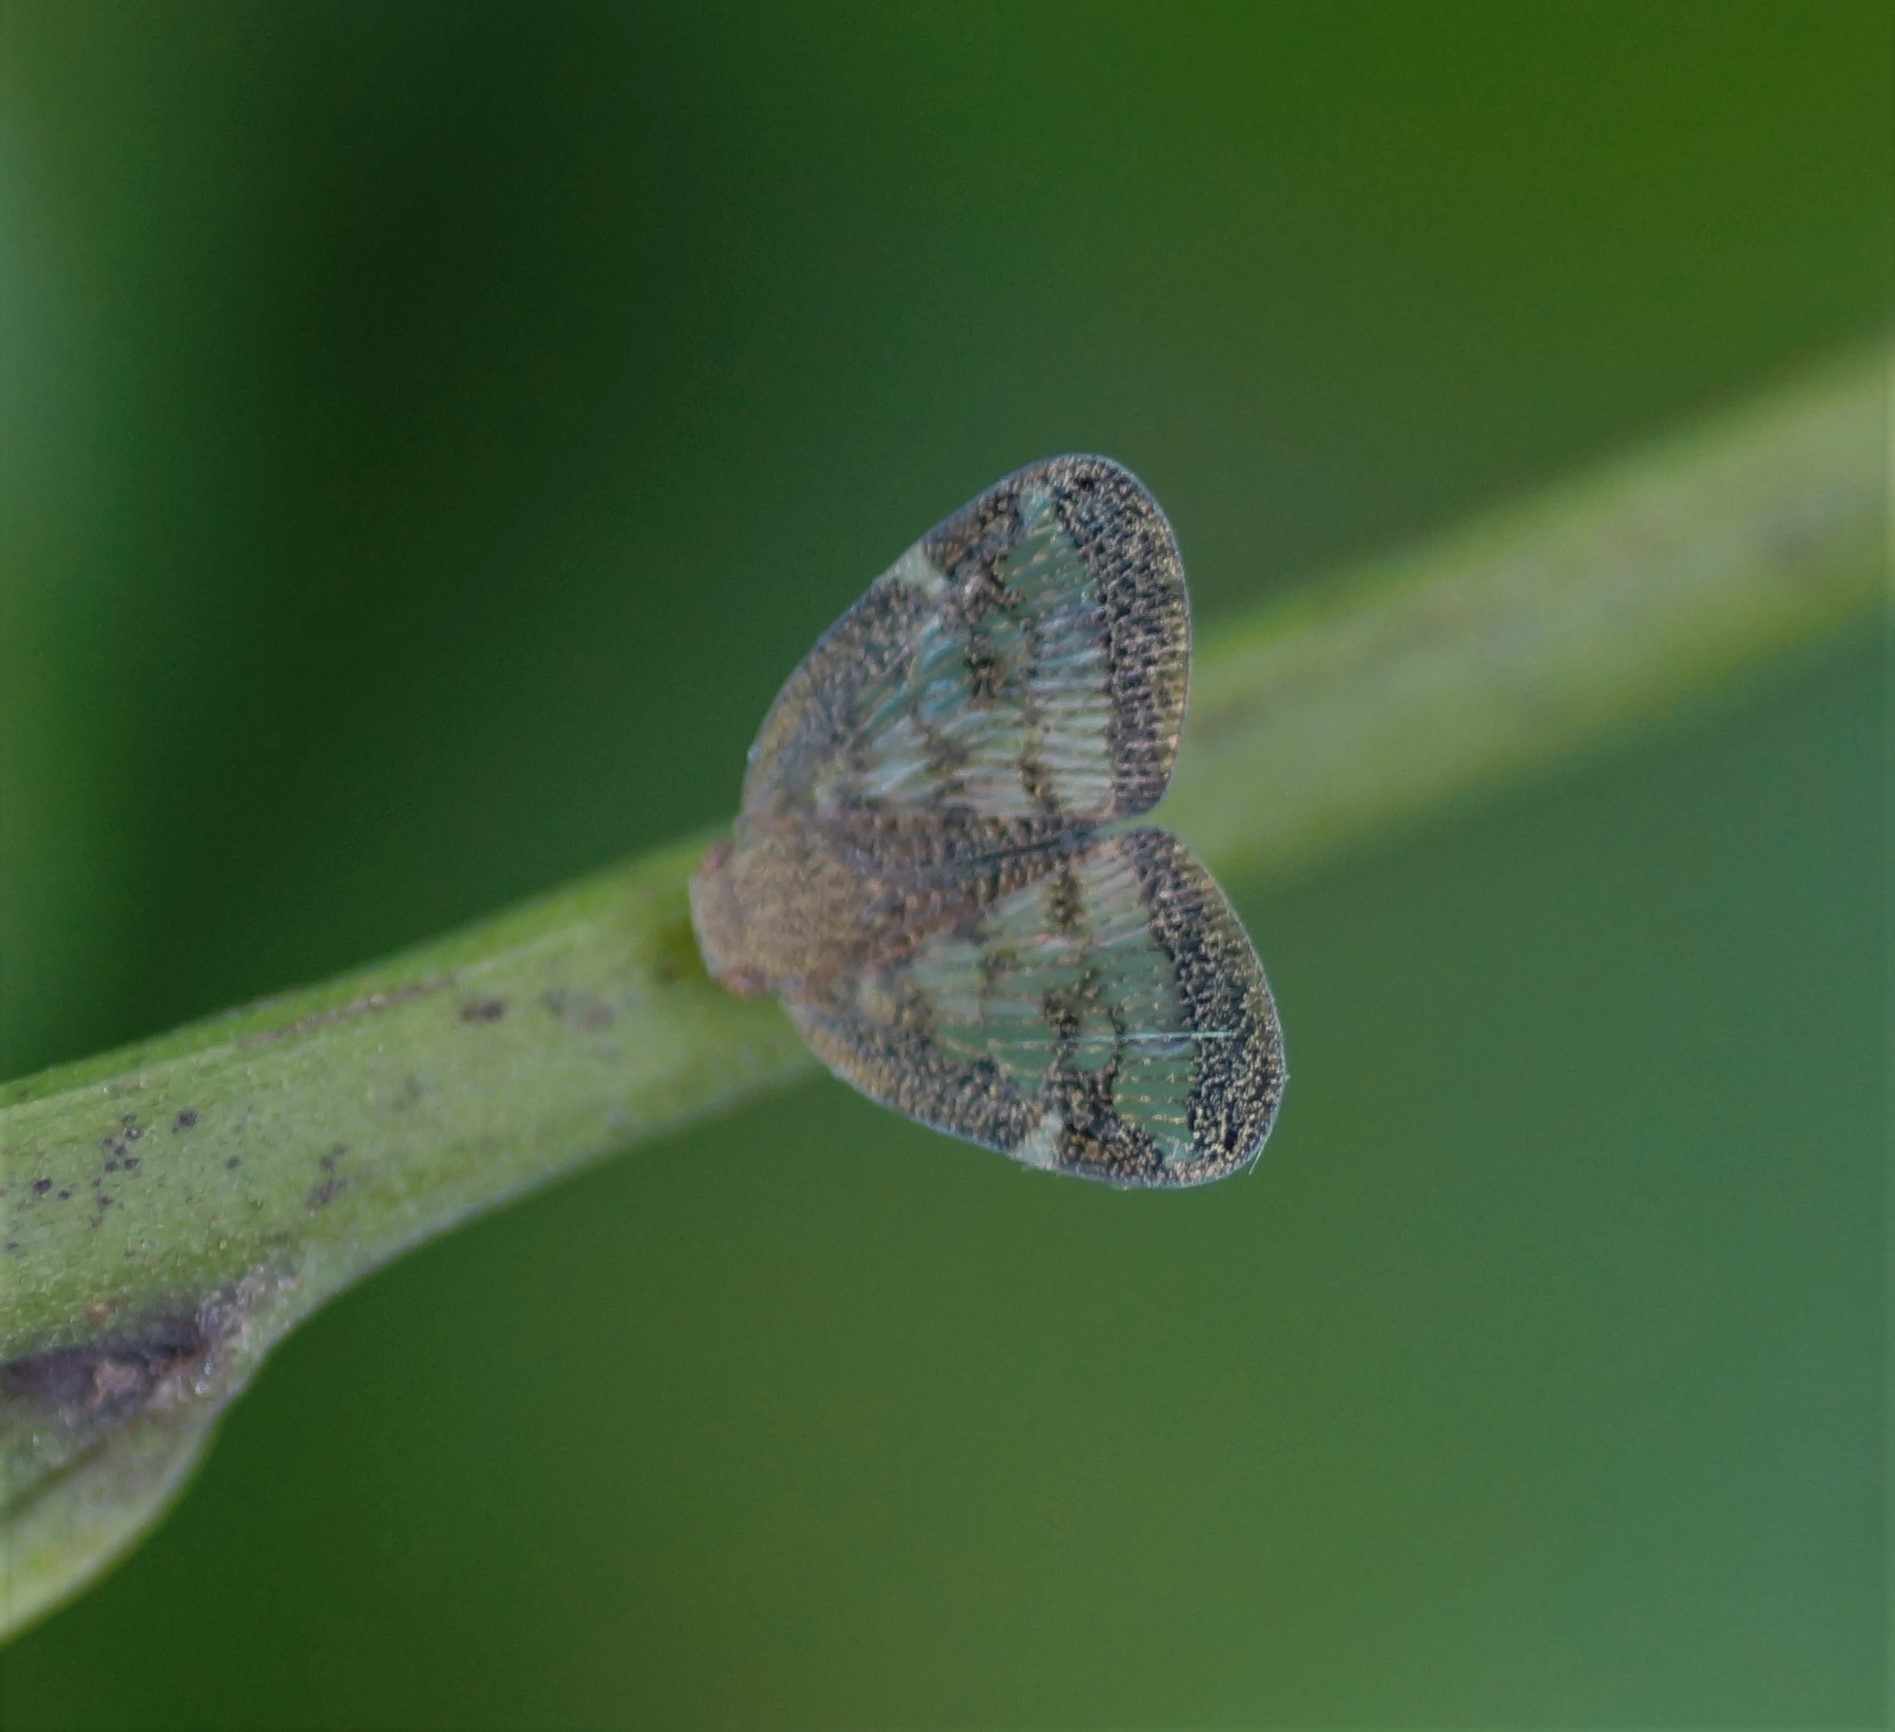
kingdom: Animalia
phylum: Arthropoda
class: Insecta
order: Hemiptera
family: Ricaniidae
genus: Scolypopa
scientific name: Scolypopa australis
